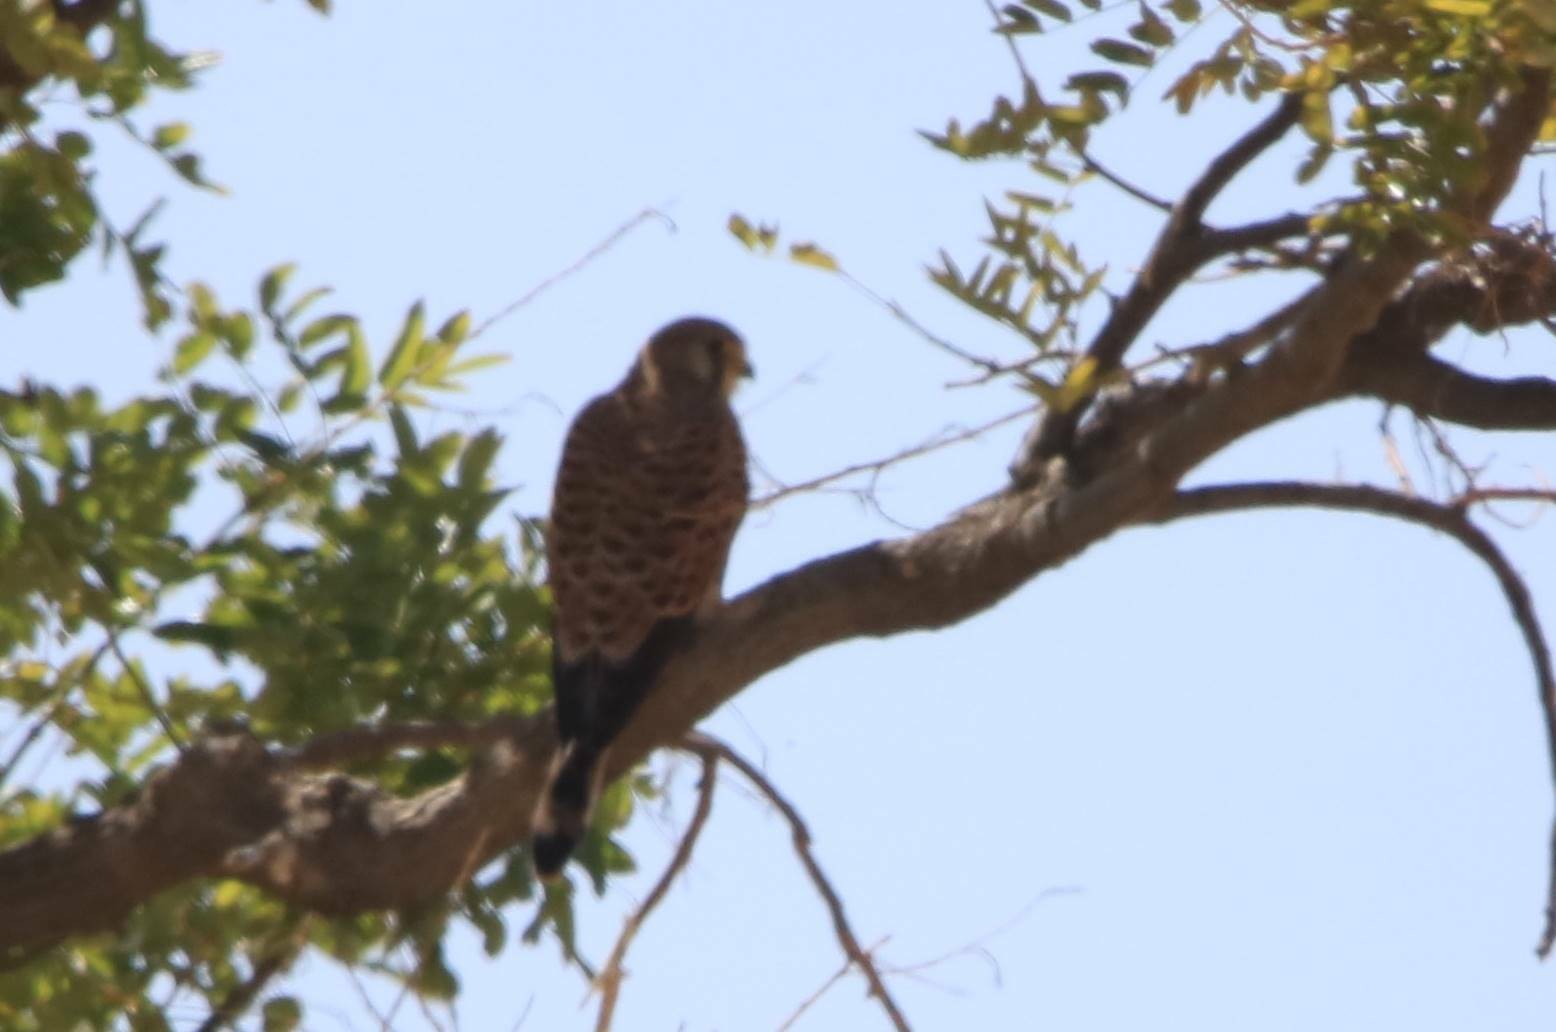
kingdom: Animalia
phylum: Chordata
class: Aves
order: Falconiformes
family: Falconidae
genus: Falco
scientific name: Falco tinnunculus
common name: Common kestrel
